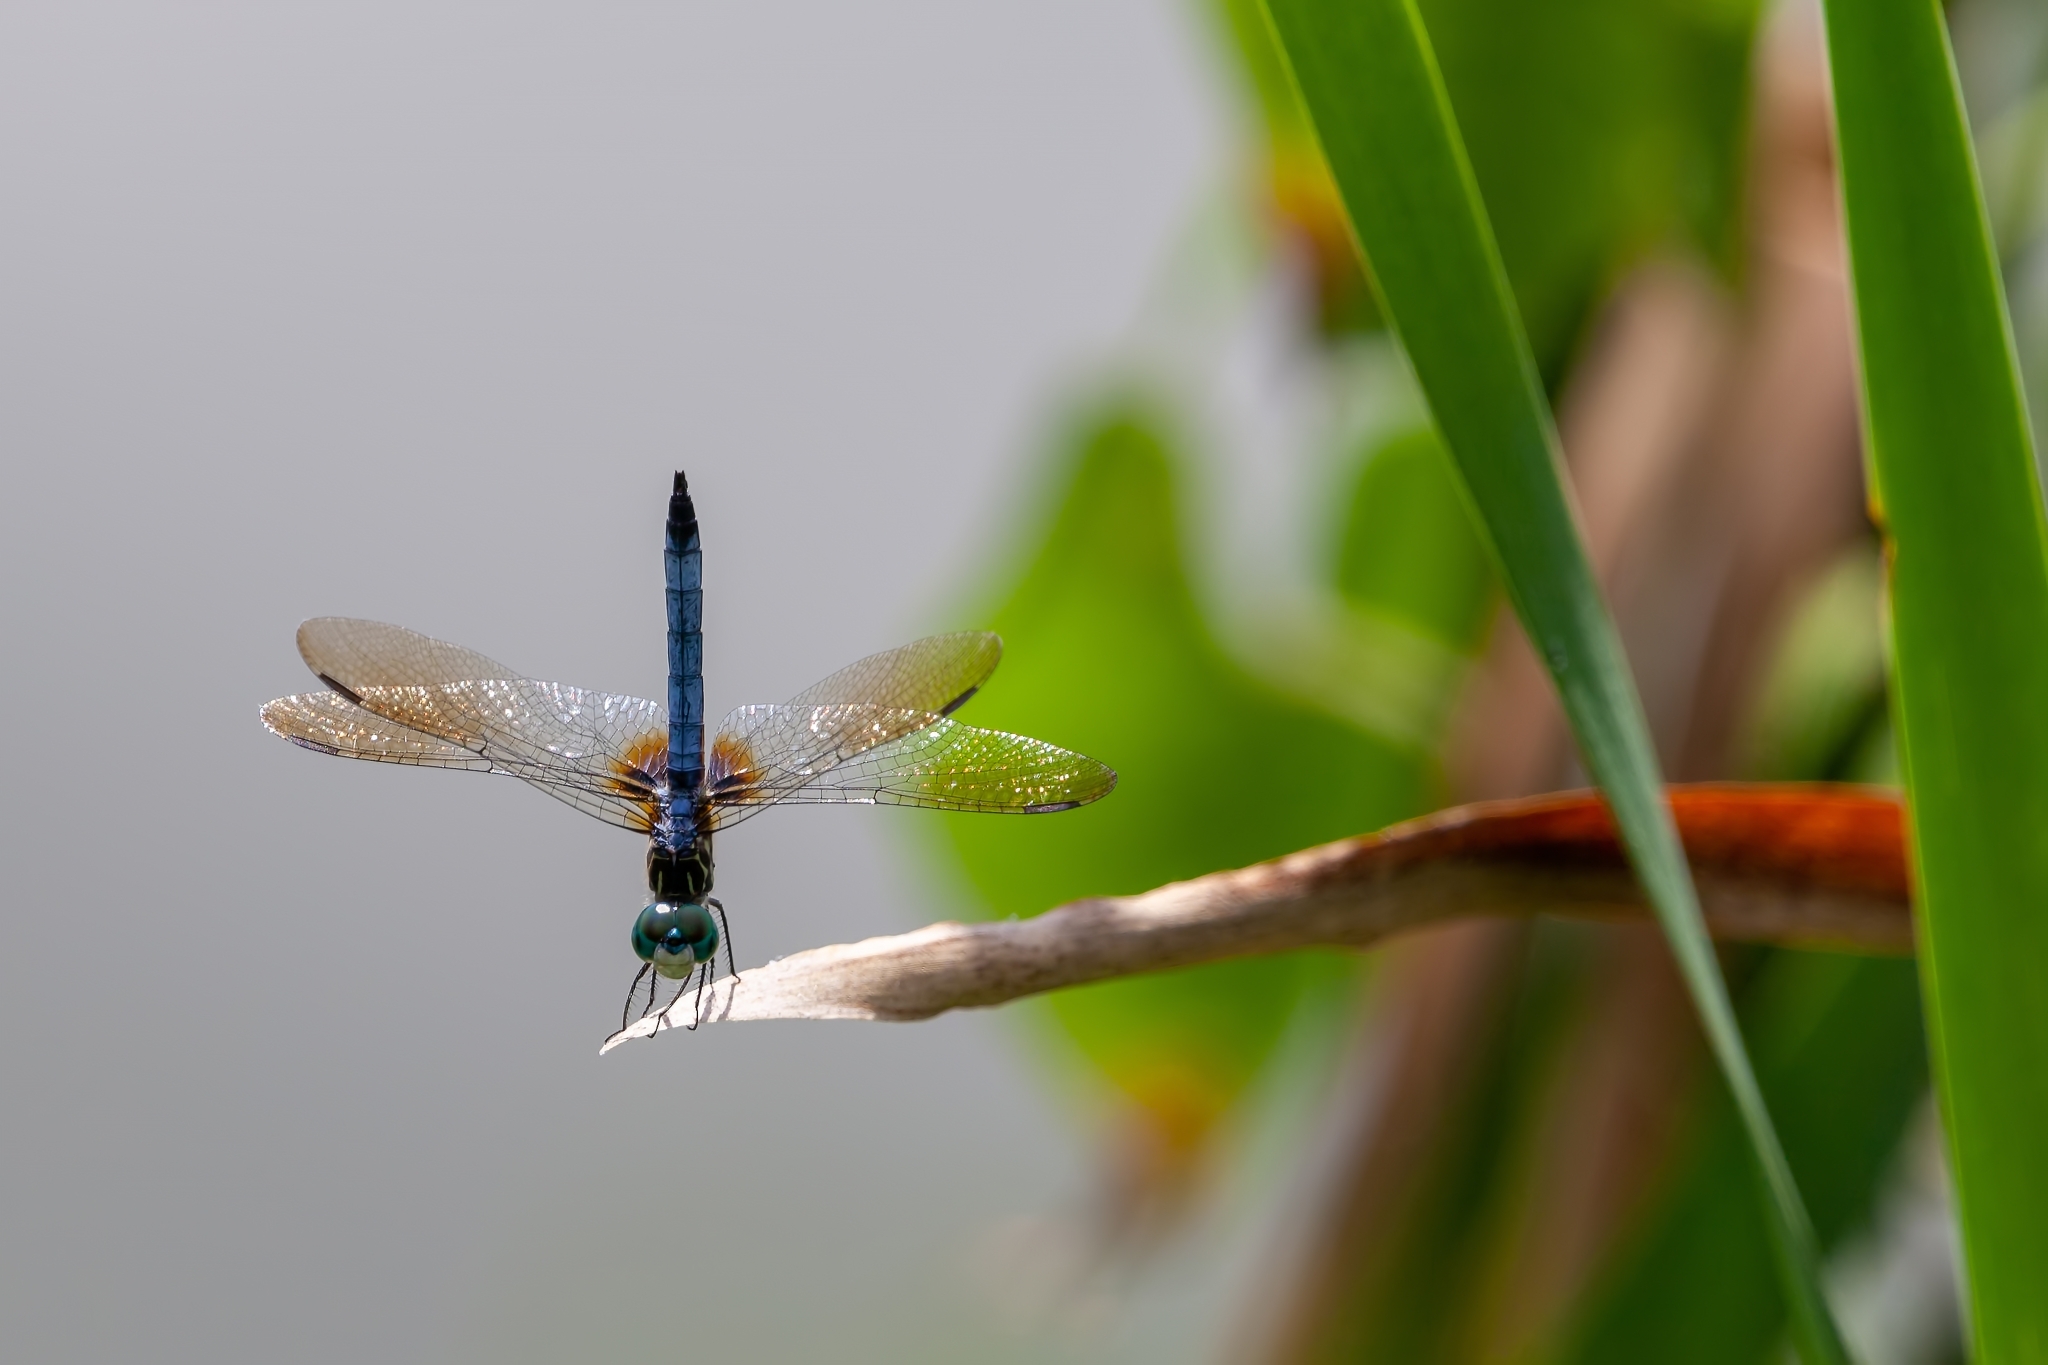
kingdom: Animalia
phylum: Arthropoda
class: Insecta
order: Odonata
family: Libellulidae
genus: Pachydiplax
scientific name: Pachydiplax longipennis
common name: Blue dasher
